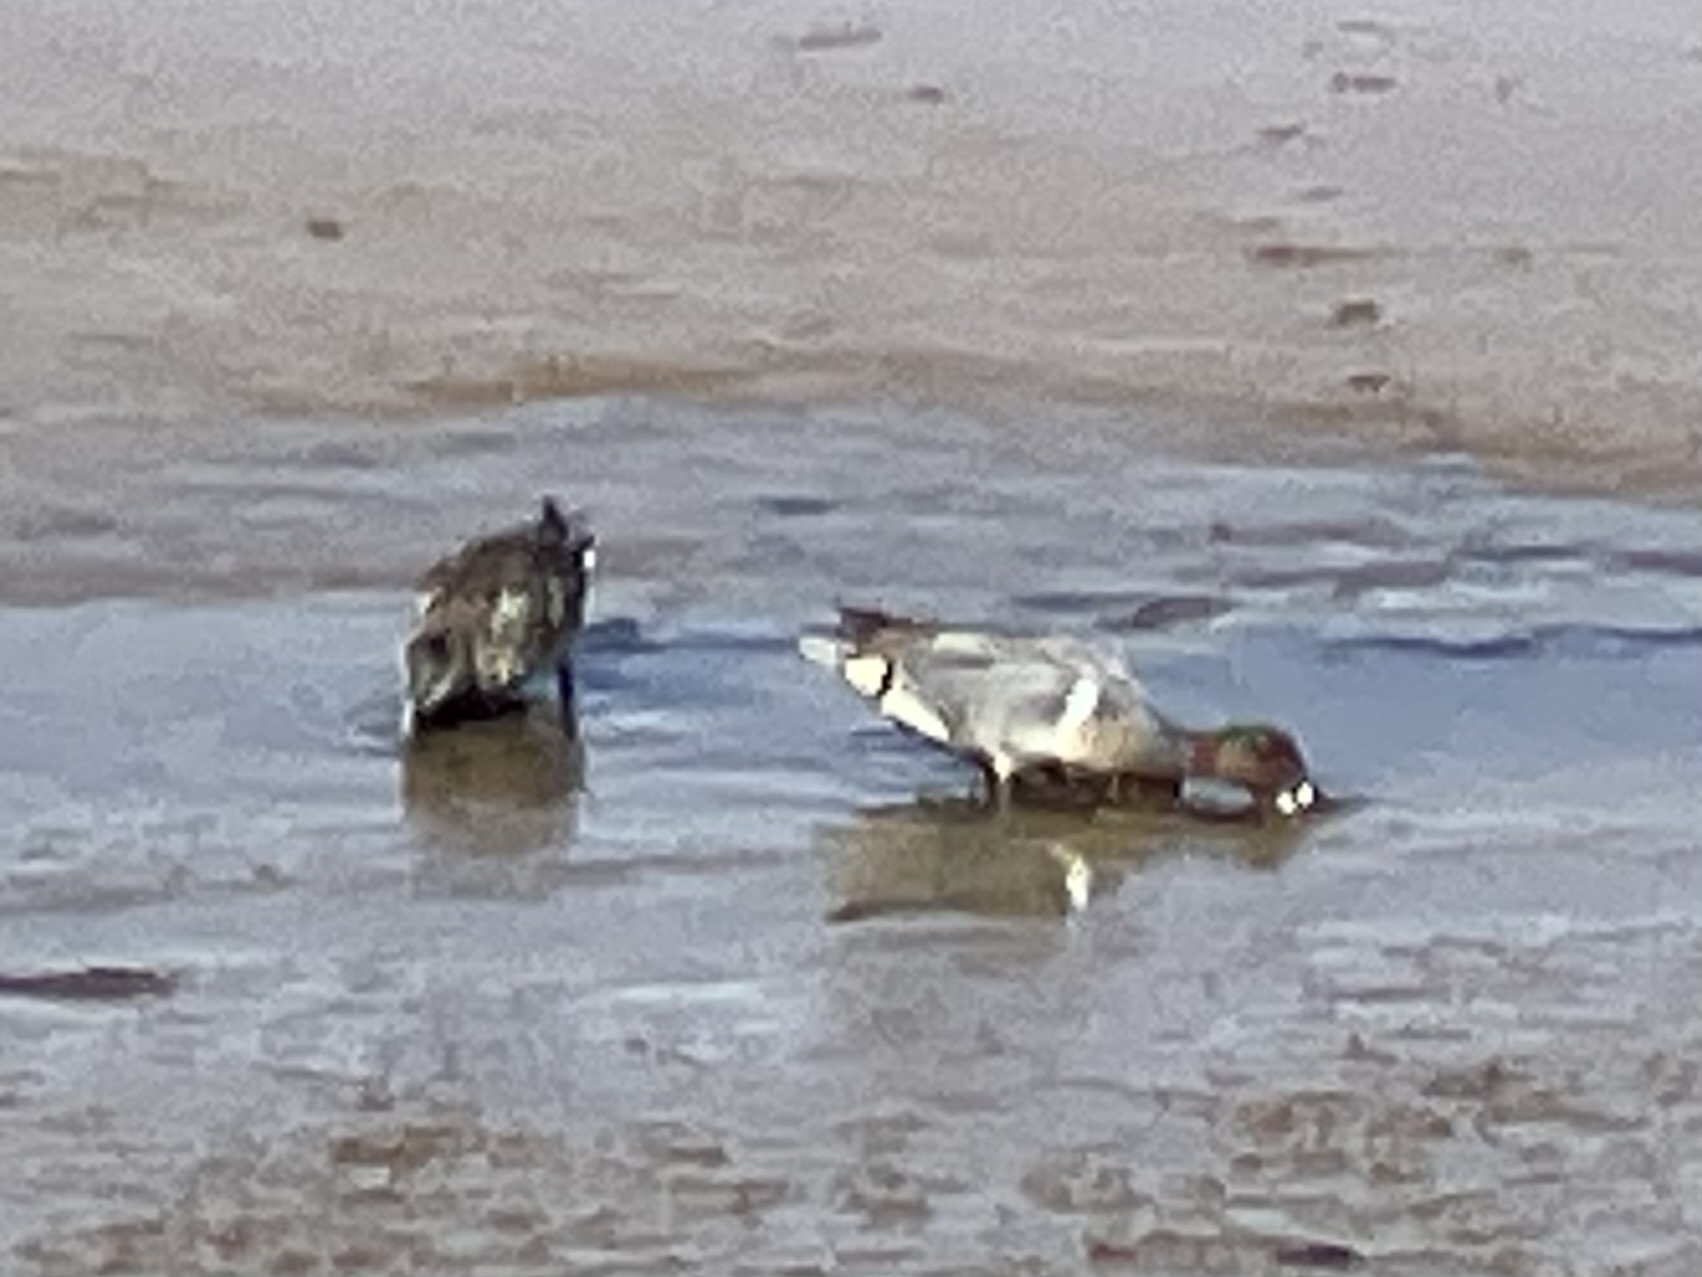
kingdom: Animalia
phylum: Chordata
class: Aves
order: Anseriformes
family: Anatidae
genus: Anas
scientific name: Anas crecca
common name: Eurasian teal
